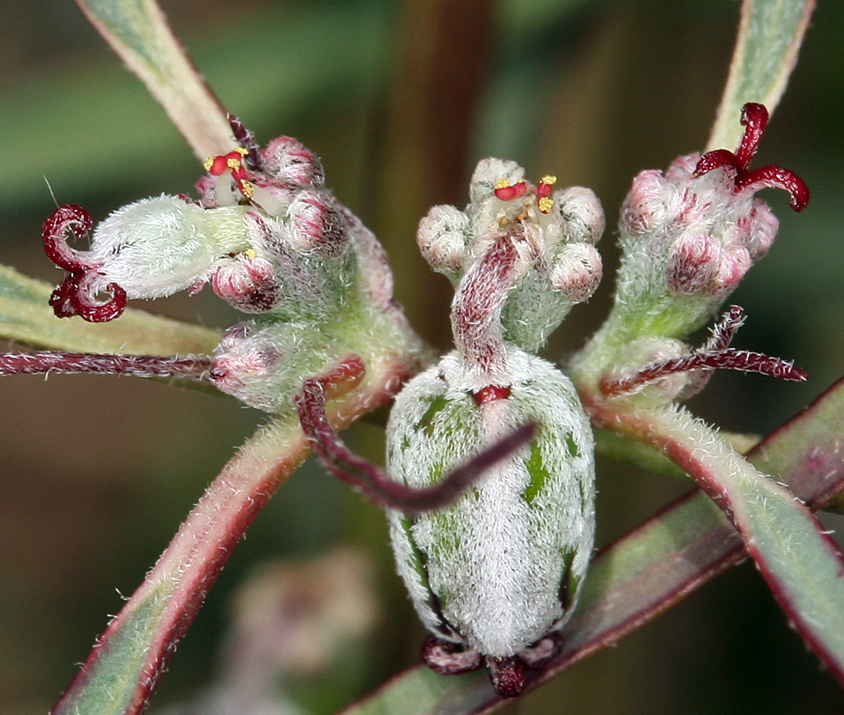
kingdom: Plantae
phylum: Tracheophyta
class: Magnoliopsida
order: Malpighiales
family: Euphorbiaceae
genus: Euphorbia
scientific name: Euphorbia eriantha
